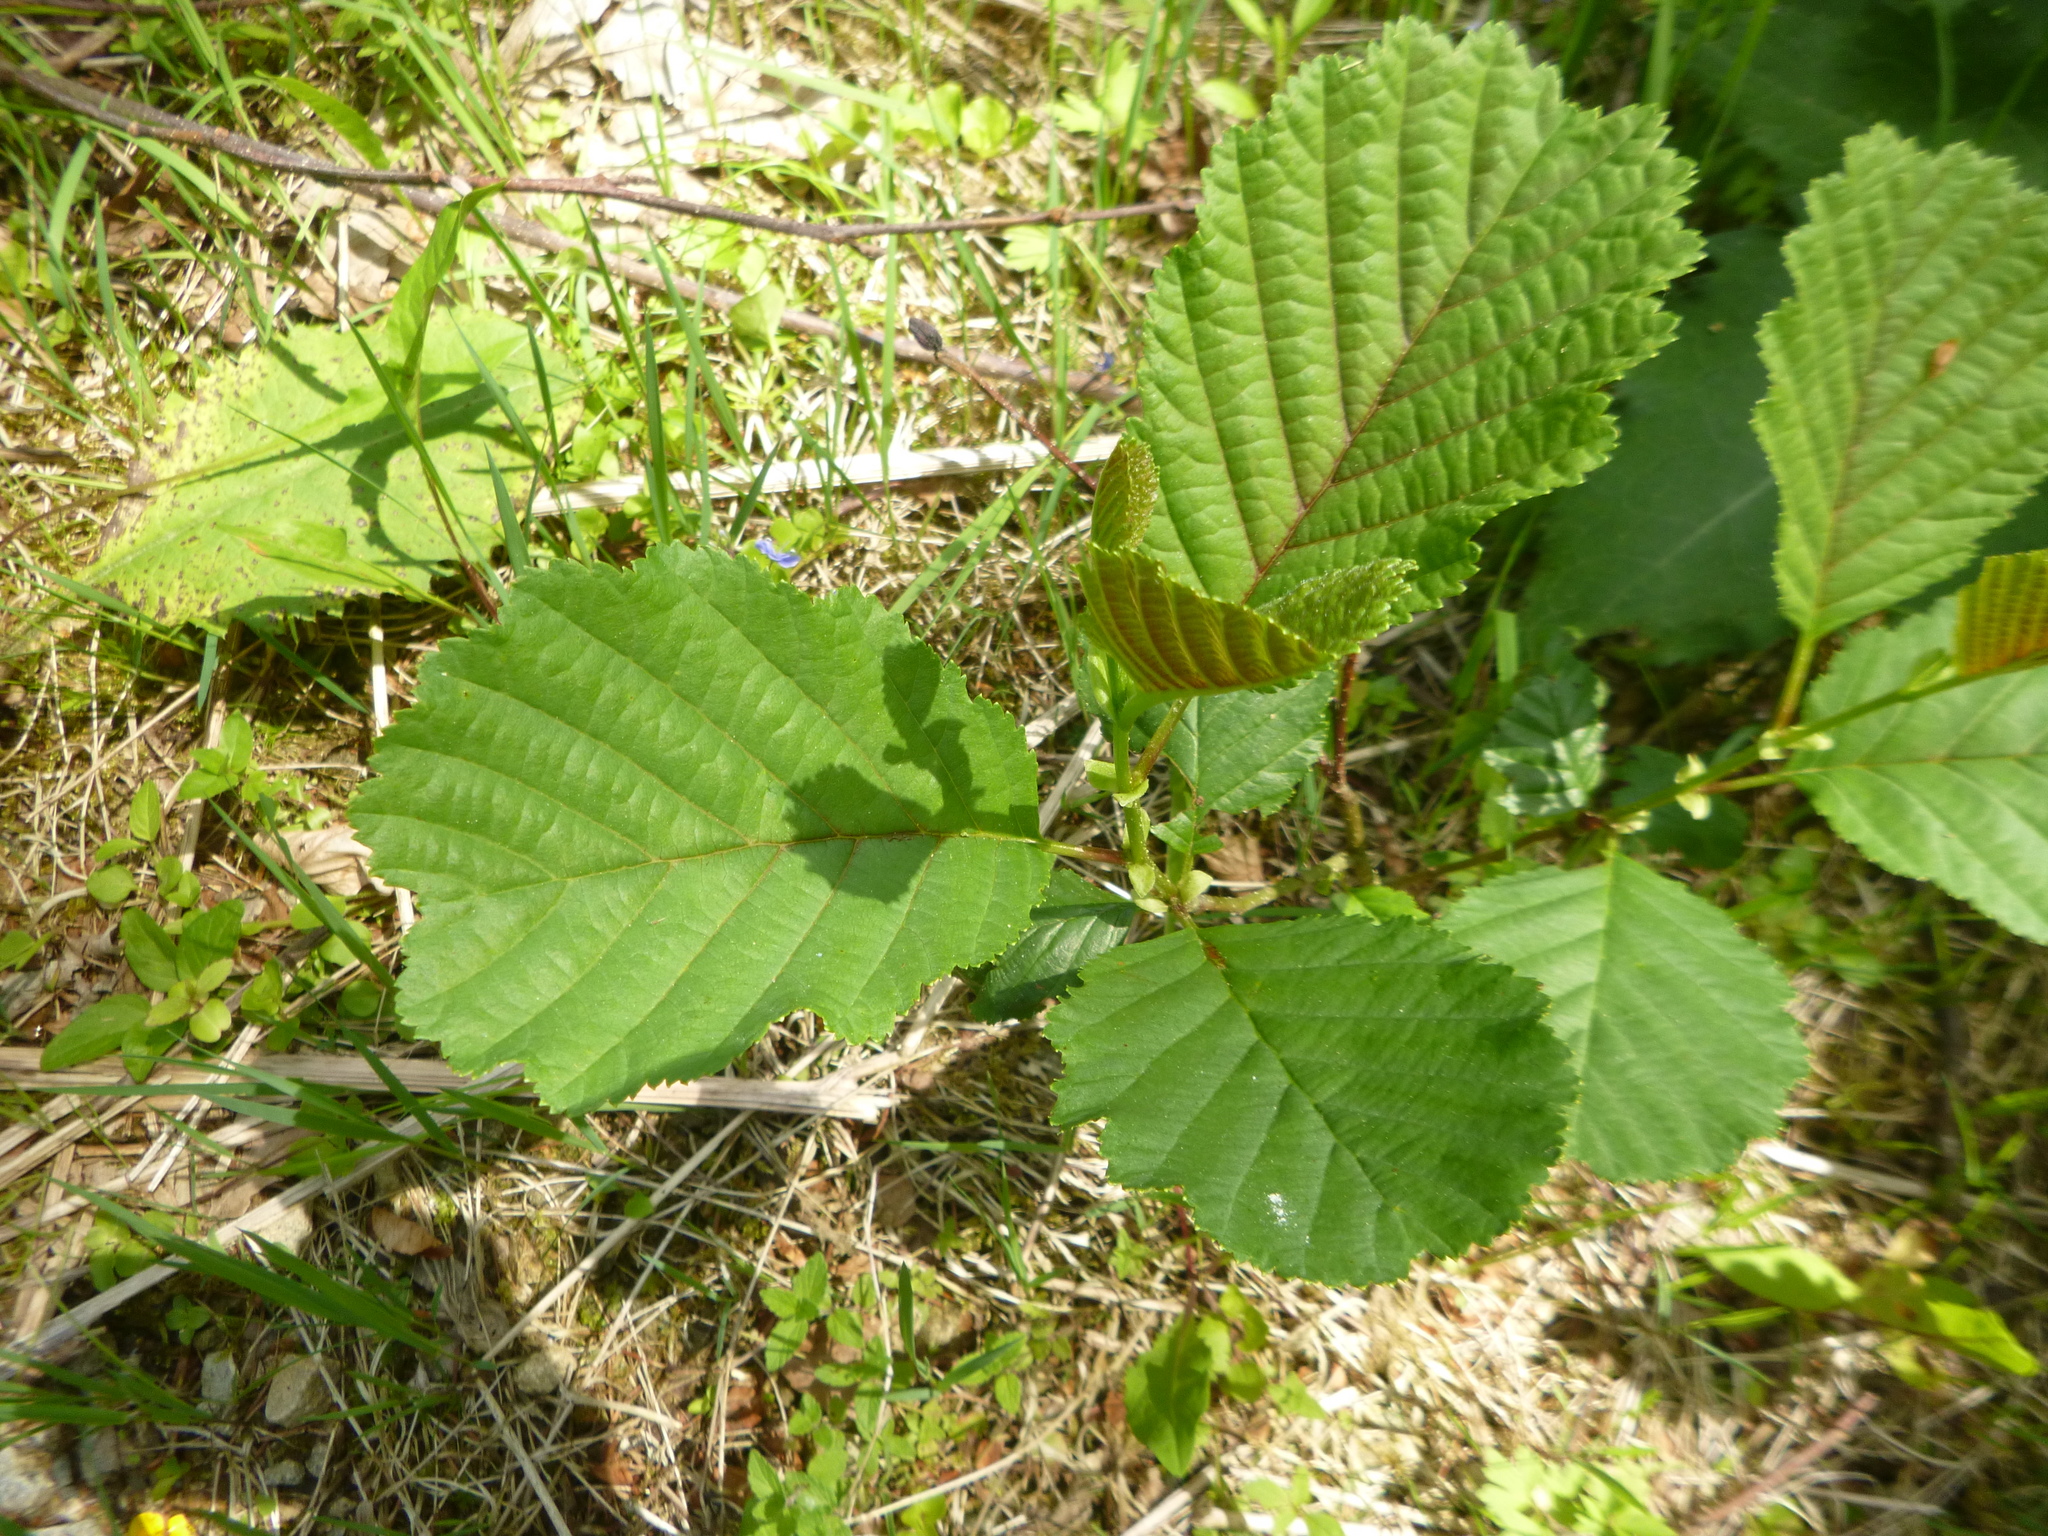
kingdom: Plantae
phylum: Tracheophyta
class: Magnoliopsida
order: Fagales
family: Betulaceae
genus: Alnus
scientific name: Alnus glutinosa
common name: Black alder
